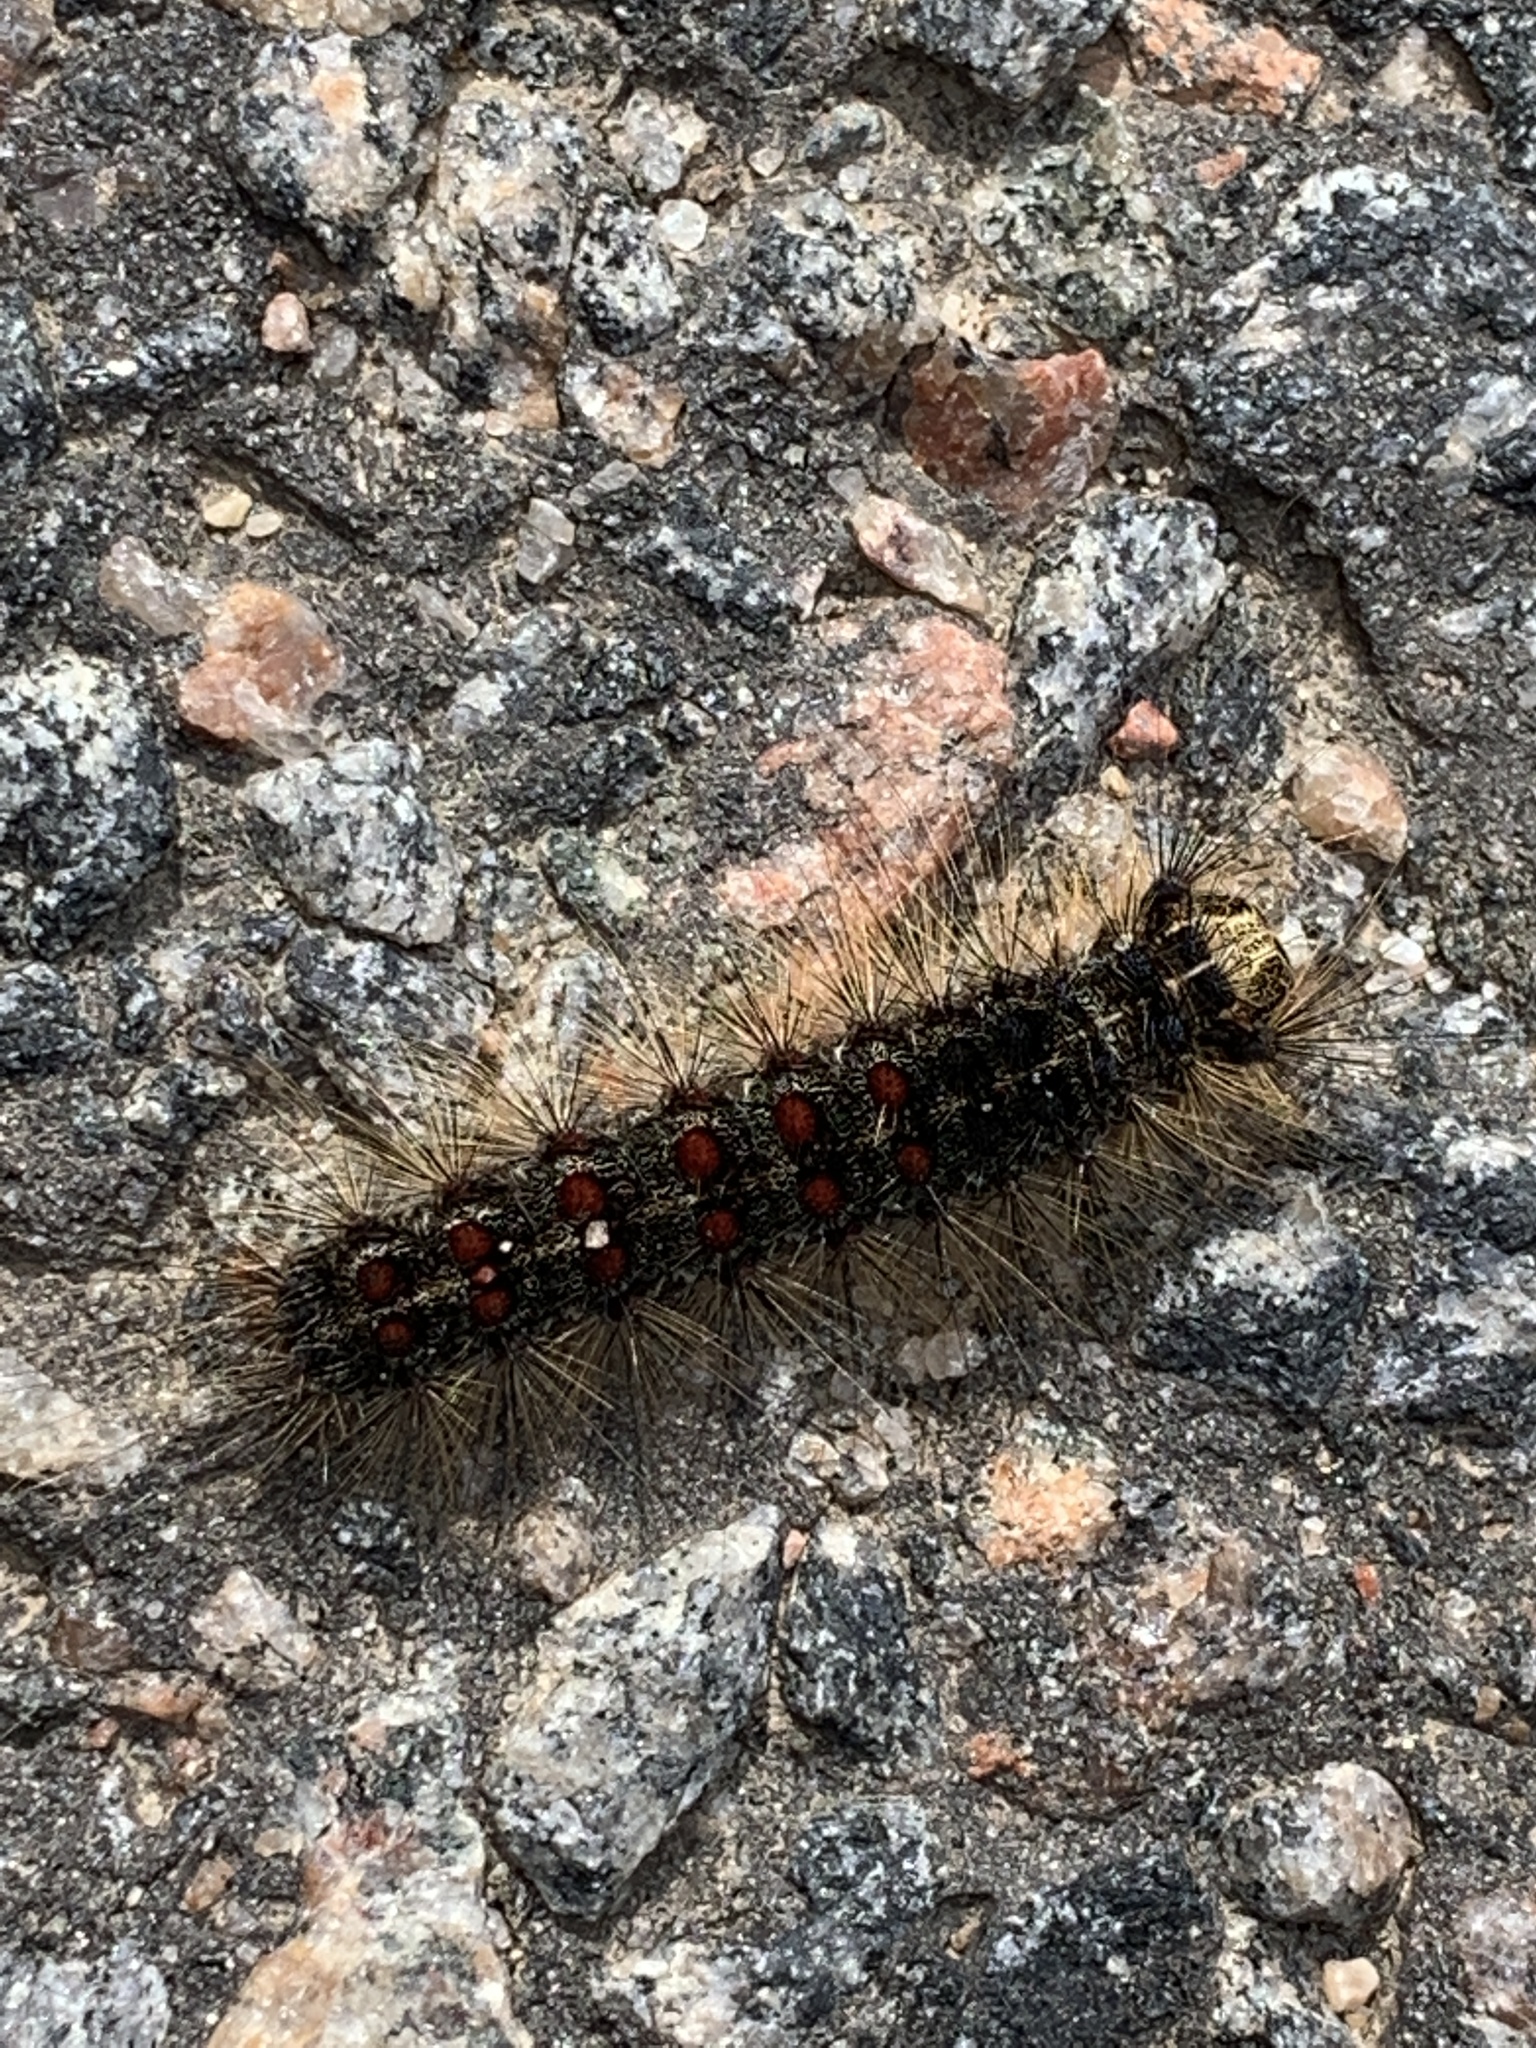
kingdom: Animalia
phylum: Arthropoda
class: Insecta
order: Lepidoptera
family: Erebidae
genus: Lymantria
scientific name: Lymantria dispar
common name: Gypsy moth
